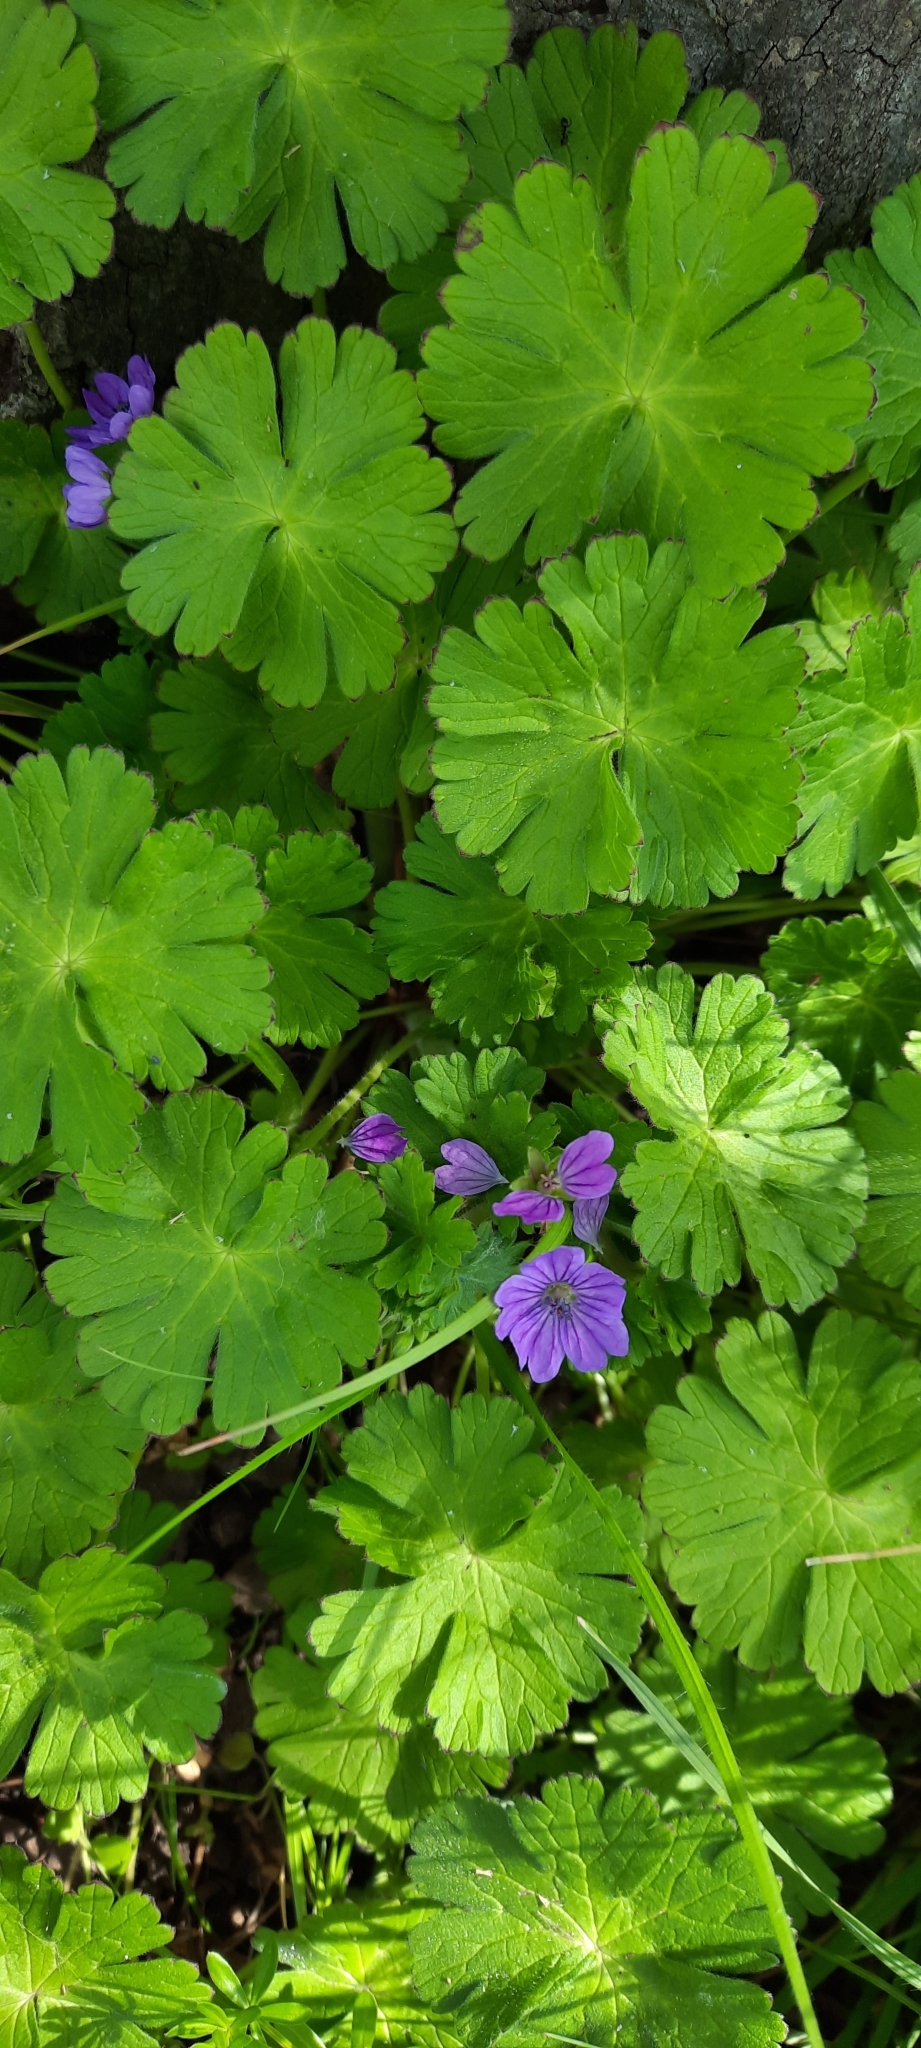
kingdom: Plantae
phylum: Tracheophyta
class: Magnoliopsida
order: Geraniales
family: Geraniaceae
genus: Geranium
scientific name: Geranium molle
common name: Dove's-foot crane's-bill
